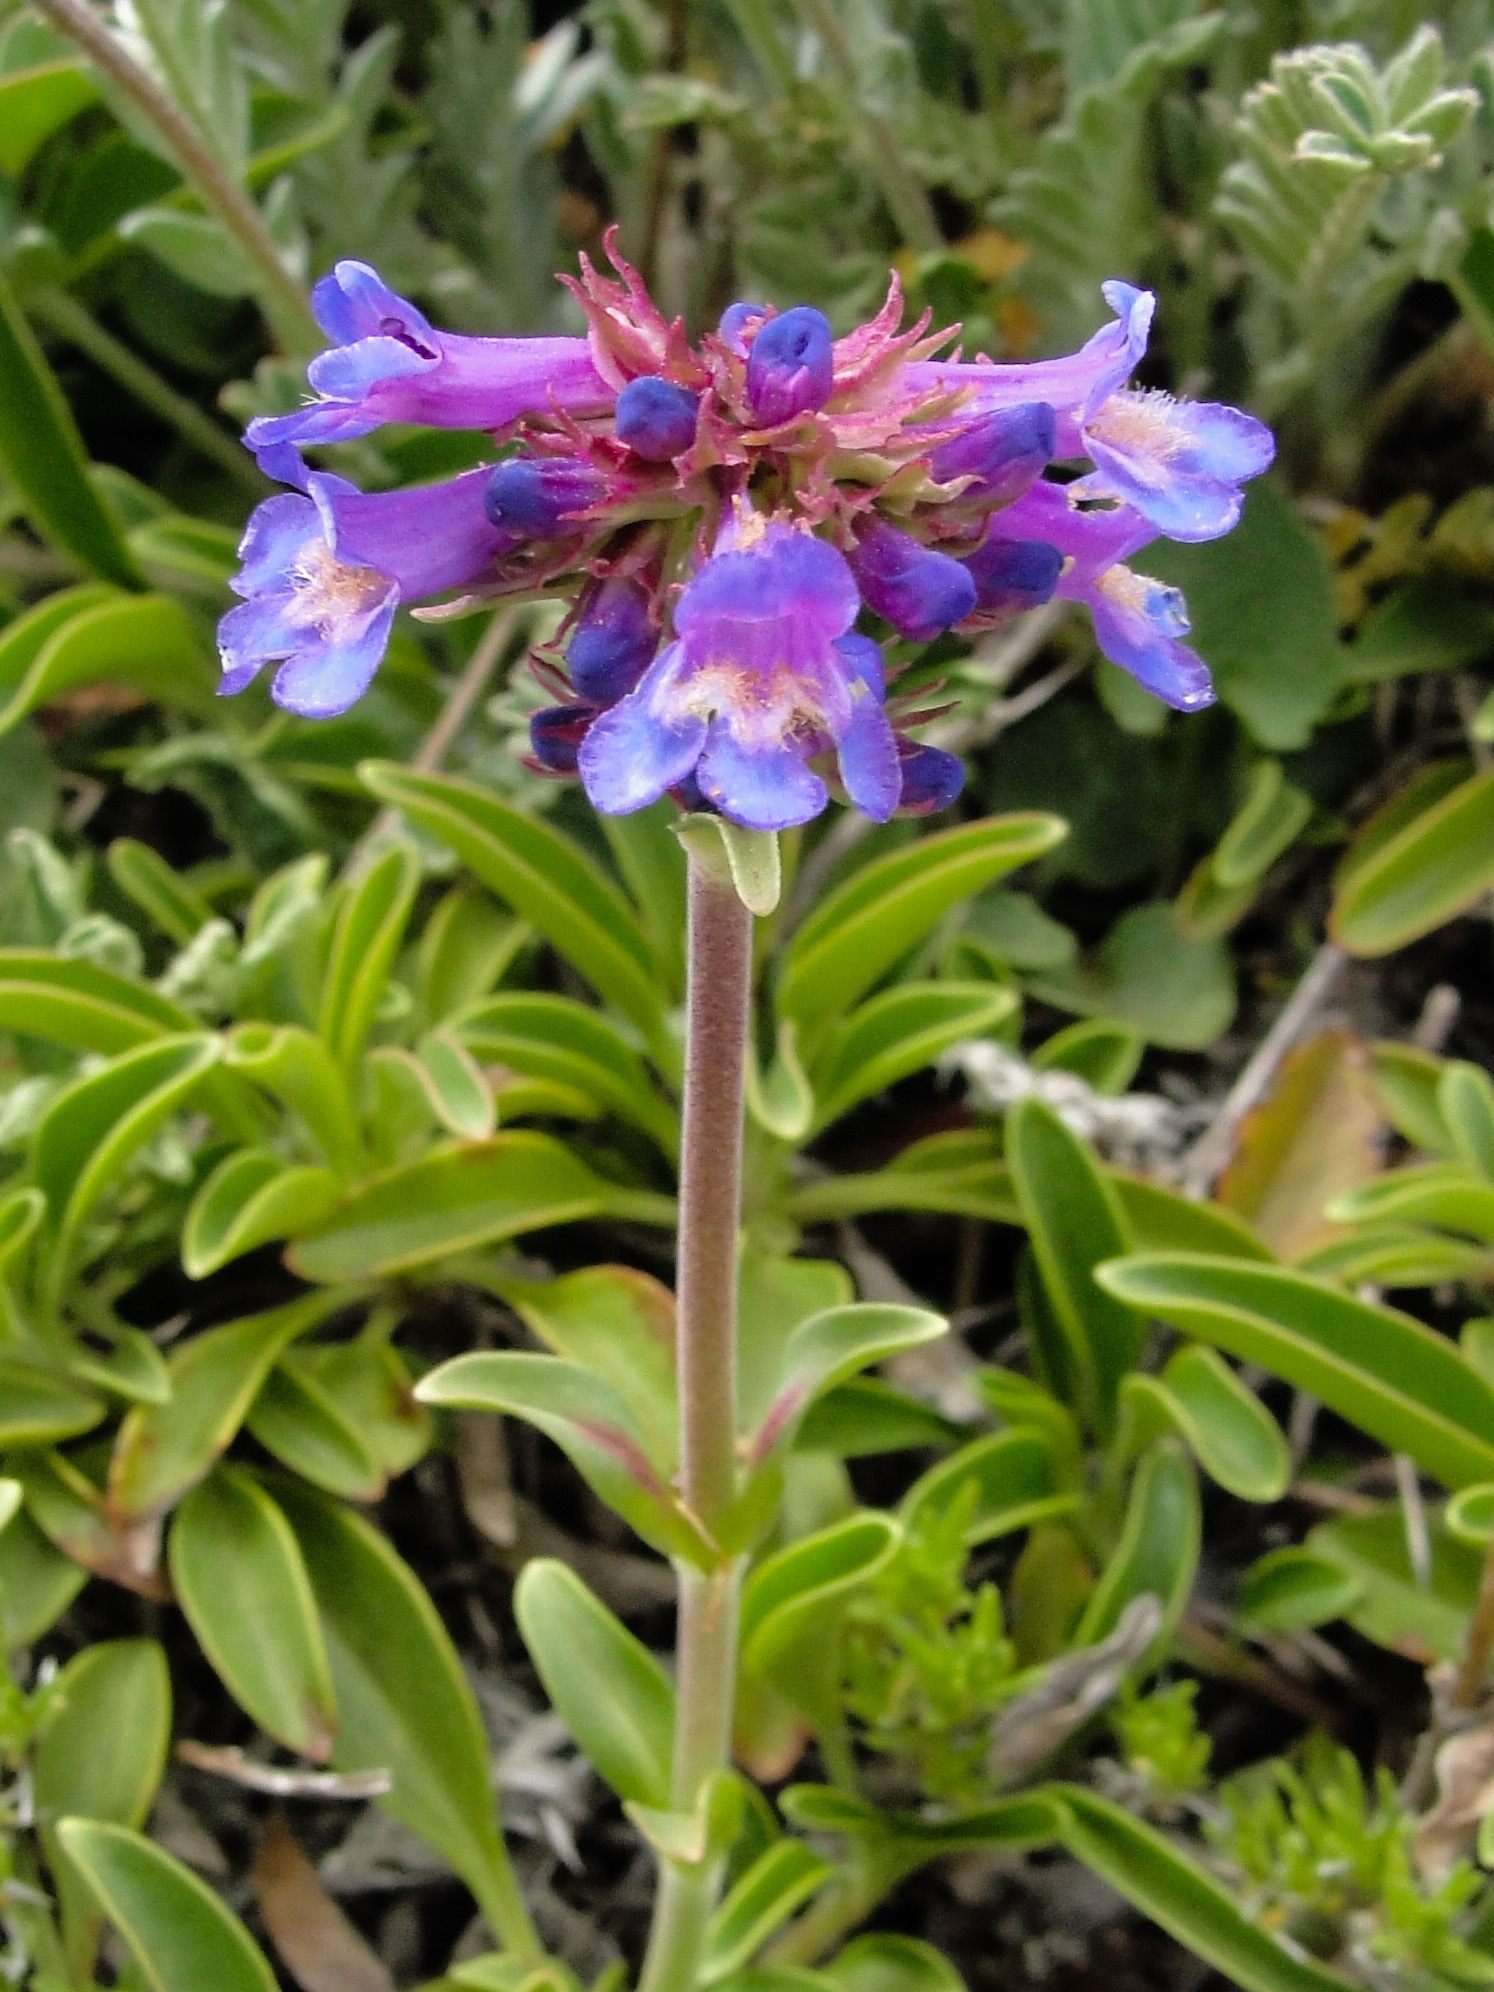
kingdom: Plantae
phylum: Tracheophyta
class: Magnoliopsida
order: Lamiales
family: Plantaginaceae
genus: Penstemon
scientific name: Penstemon procerus
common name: Small-flower penstemon
